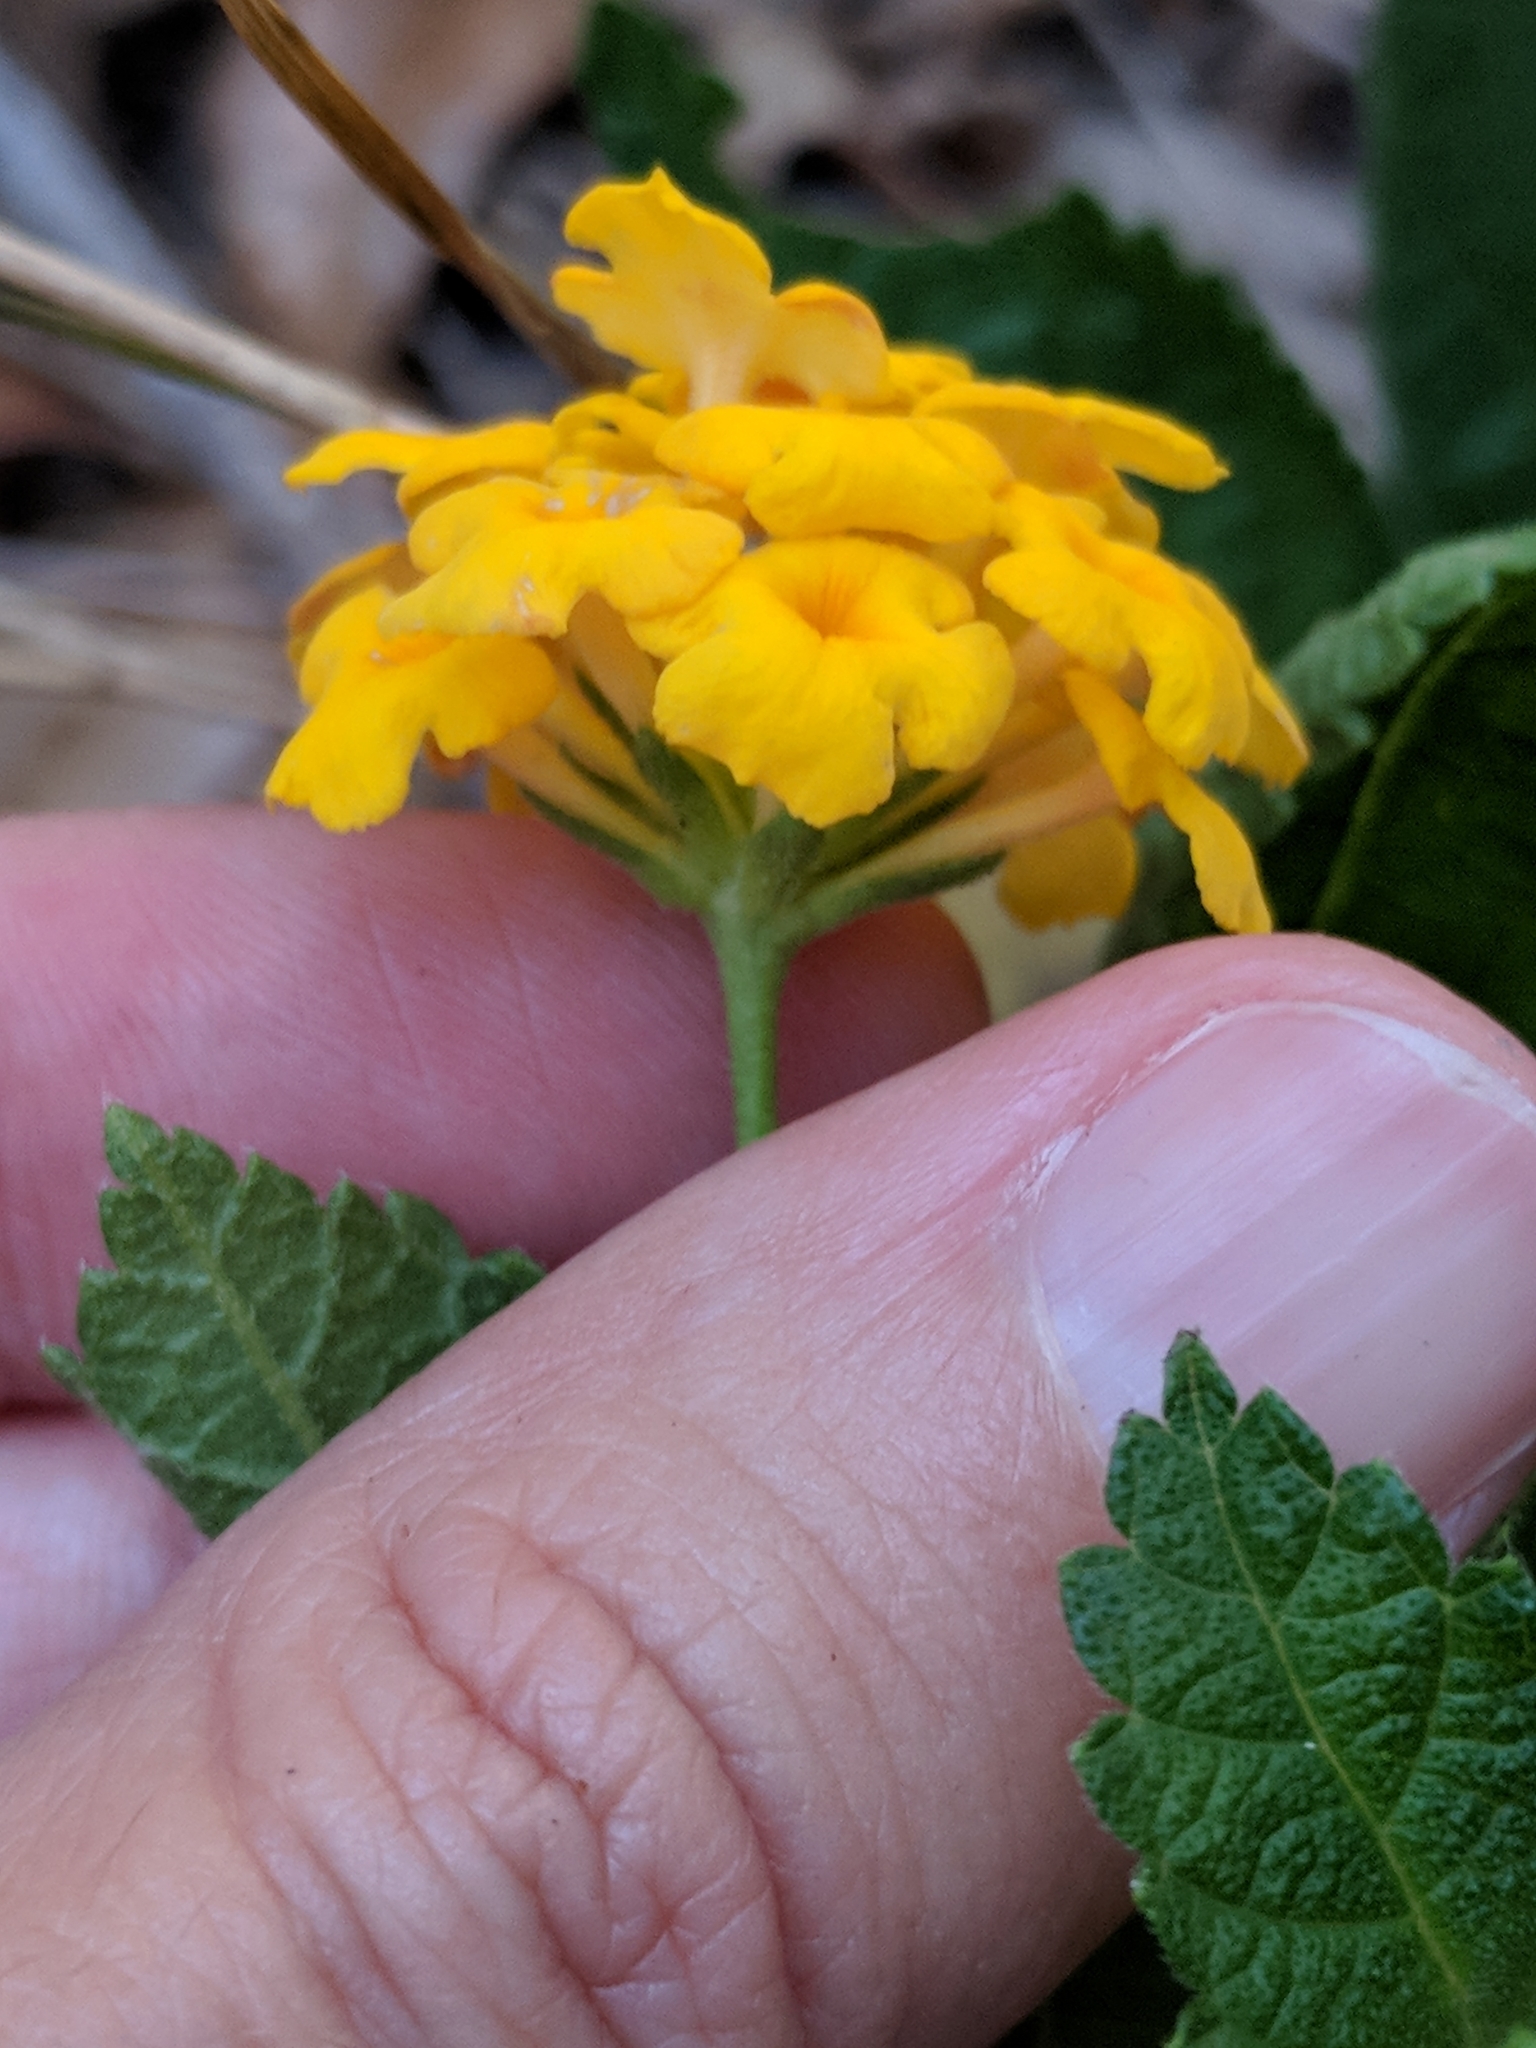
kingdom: Plantae
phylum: Tracheophyta
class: Magnoliopsida
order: Lamiales
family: Verbenaceae
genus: Lantana
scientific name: Lantana polyacantha
